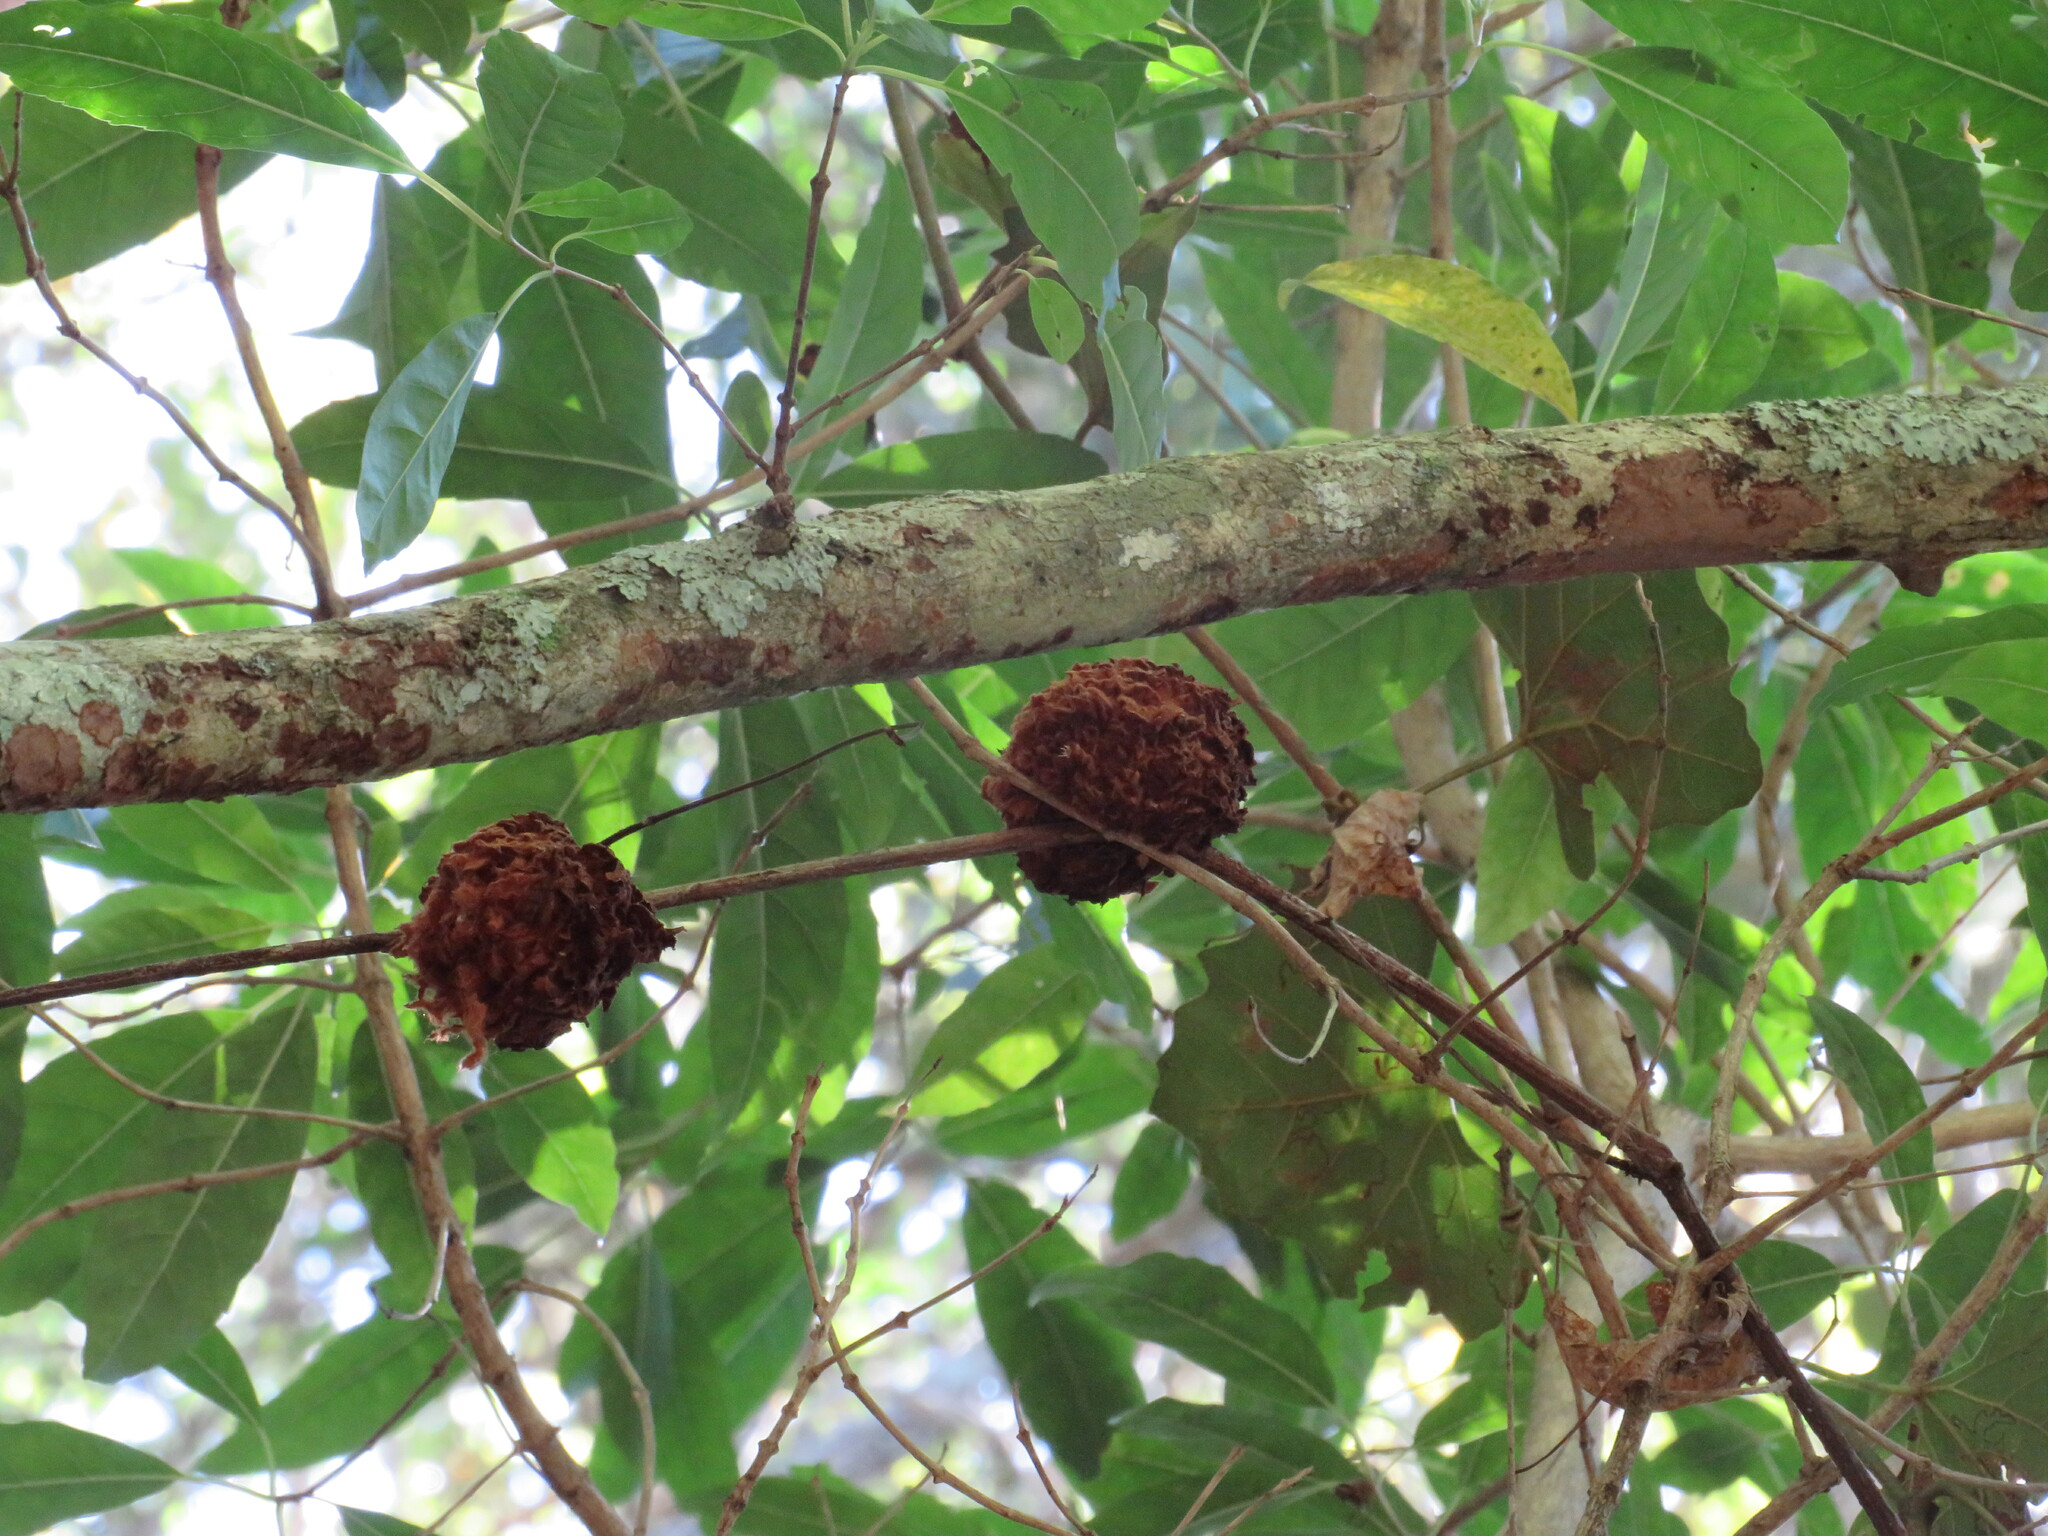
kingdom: Plantae
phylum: Tracheophyta
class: Magnoliopsida
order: Vitales
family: Vitaceae
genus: Rhoicissus
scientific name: Rhoicissus tomentosa
